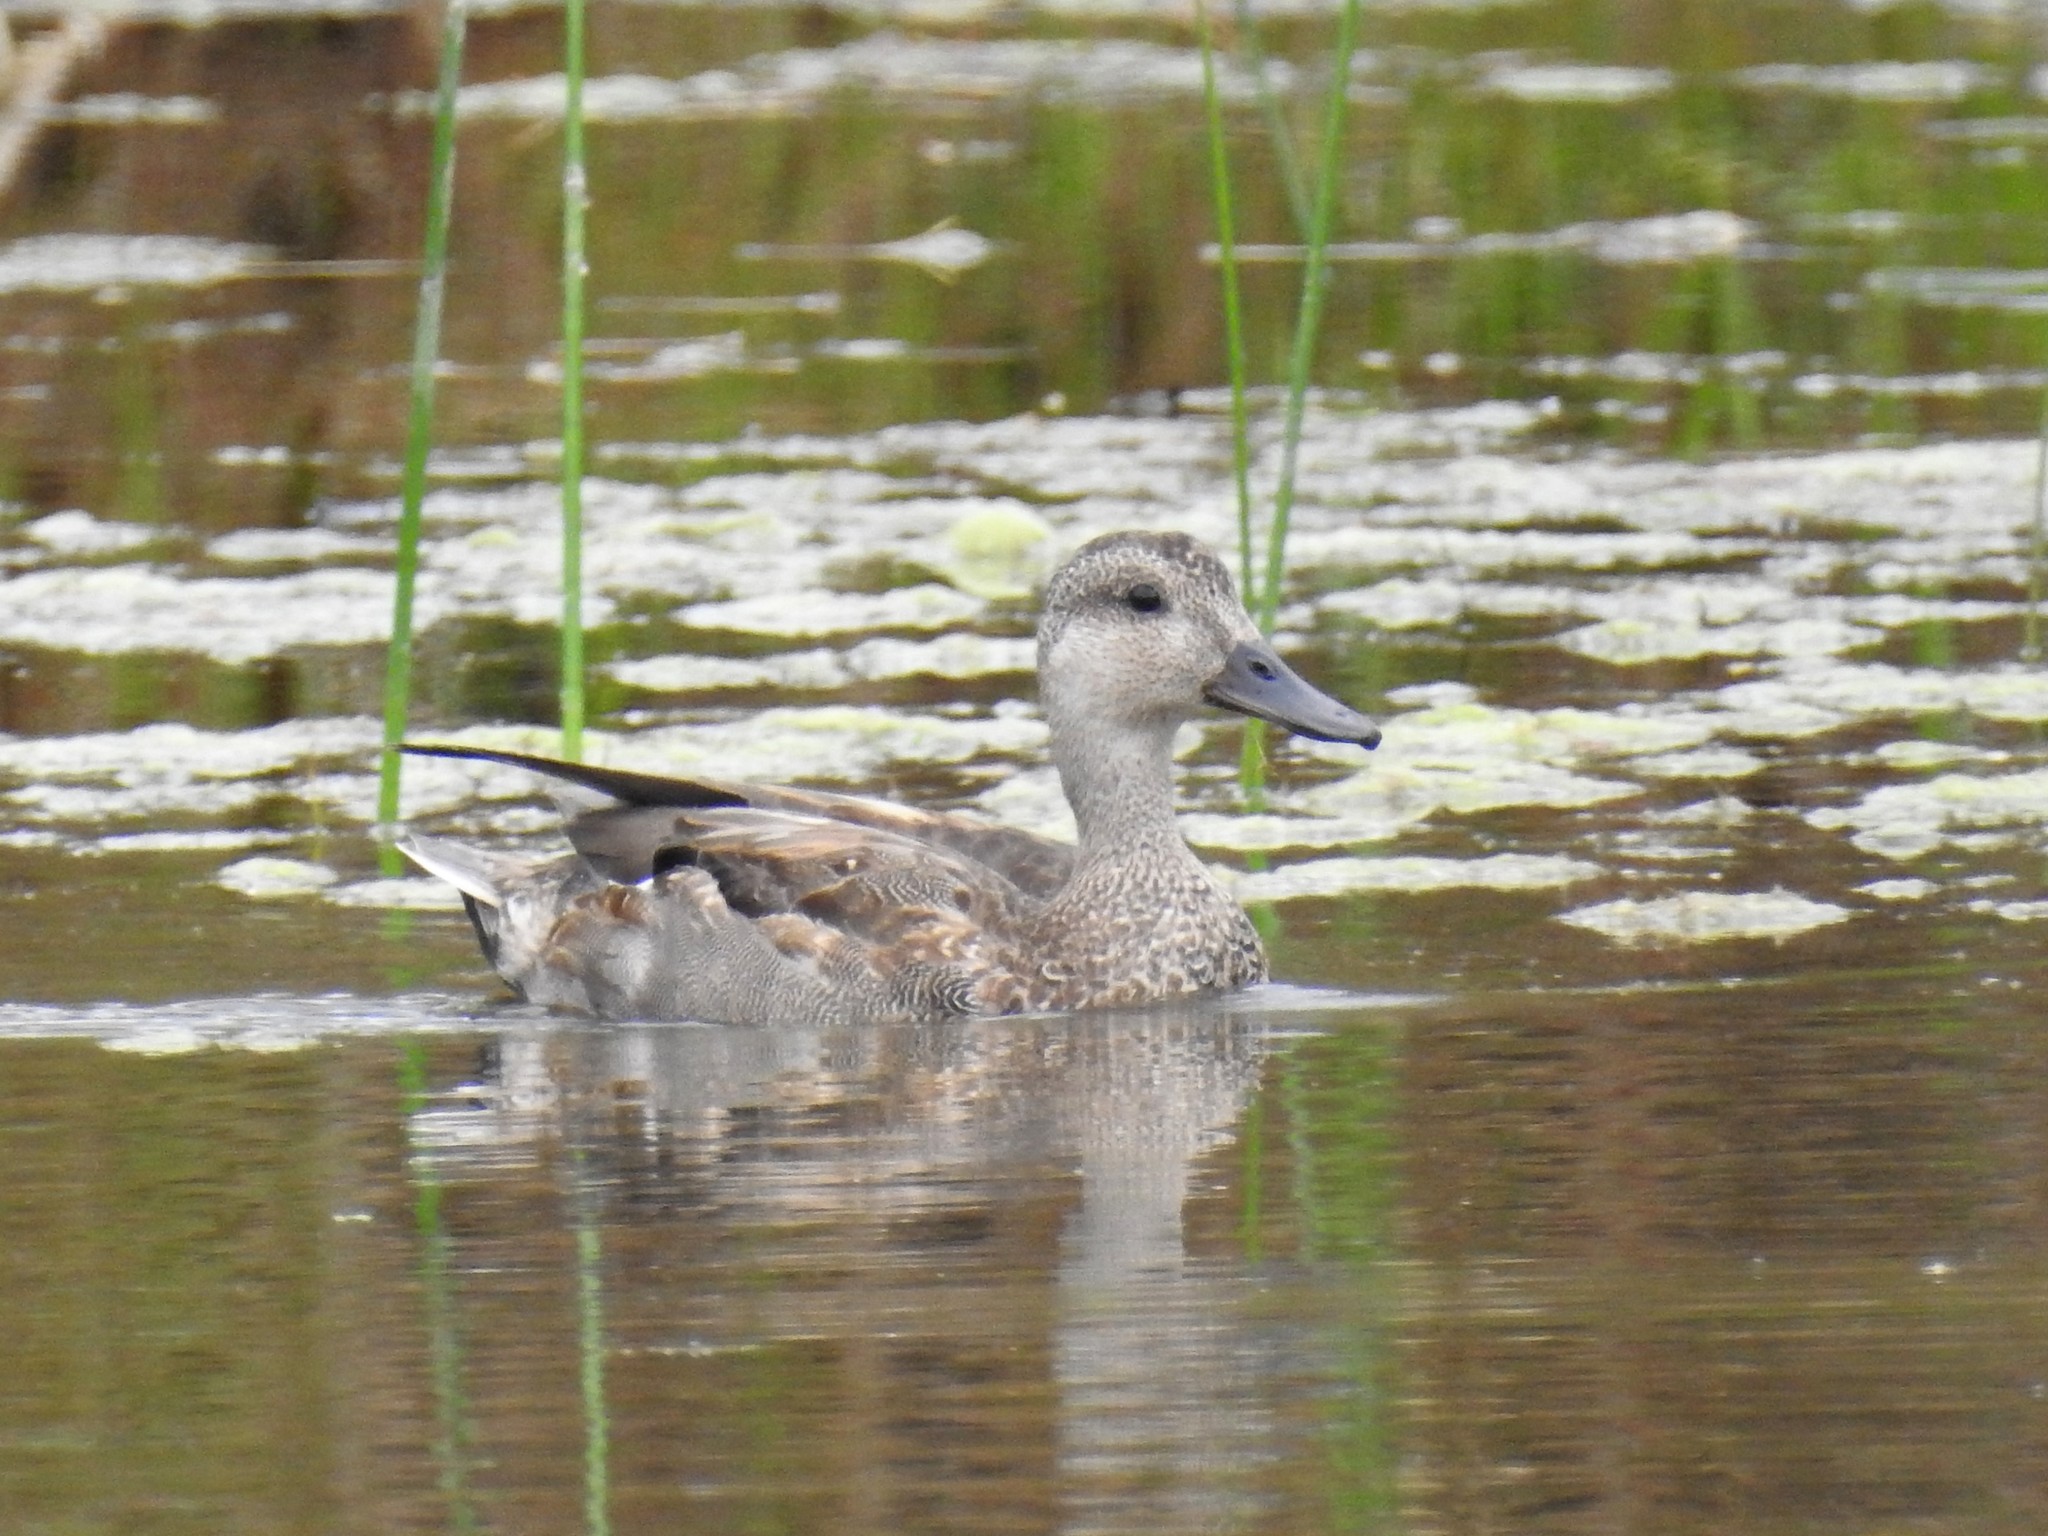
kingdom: Animalia
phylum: Chordata
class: Aves
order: Anseriformes
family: Anatidae
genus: Mareca
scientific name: Mareca strepera
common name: Gadwall
